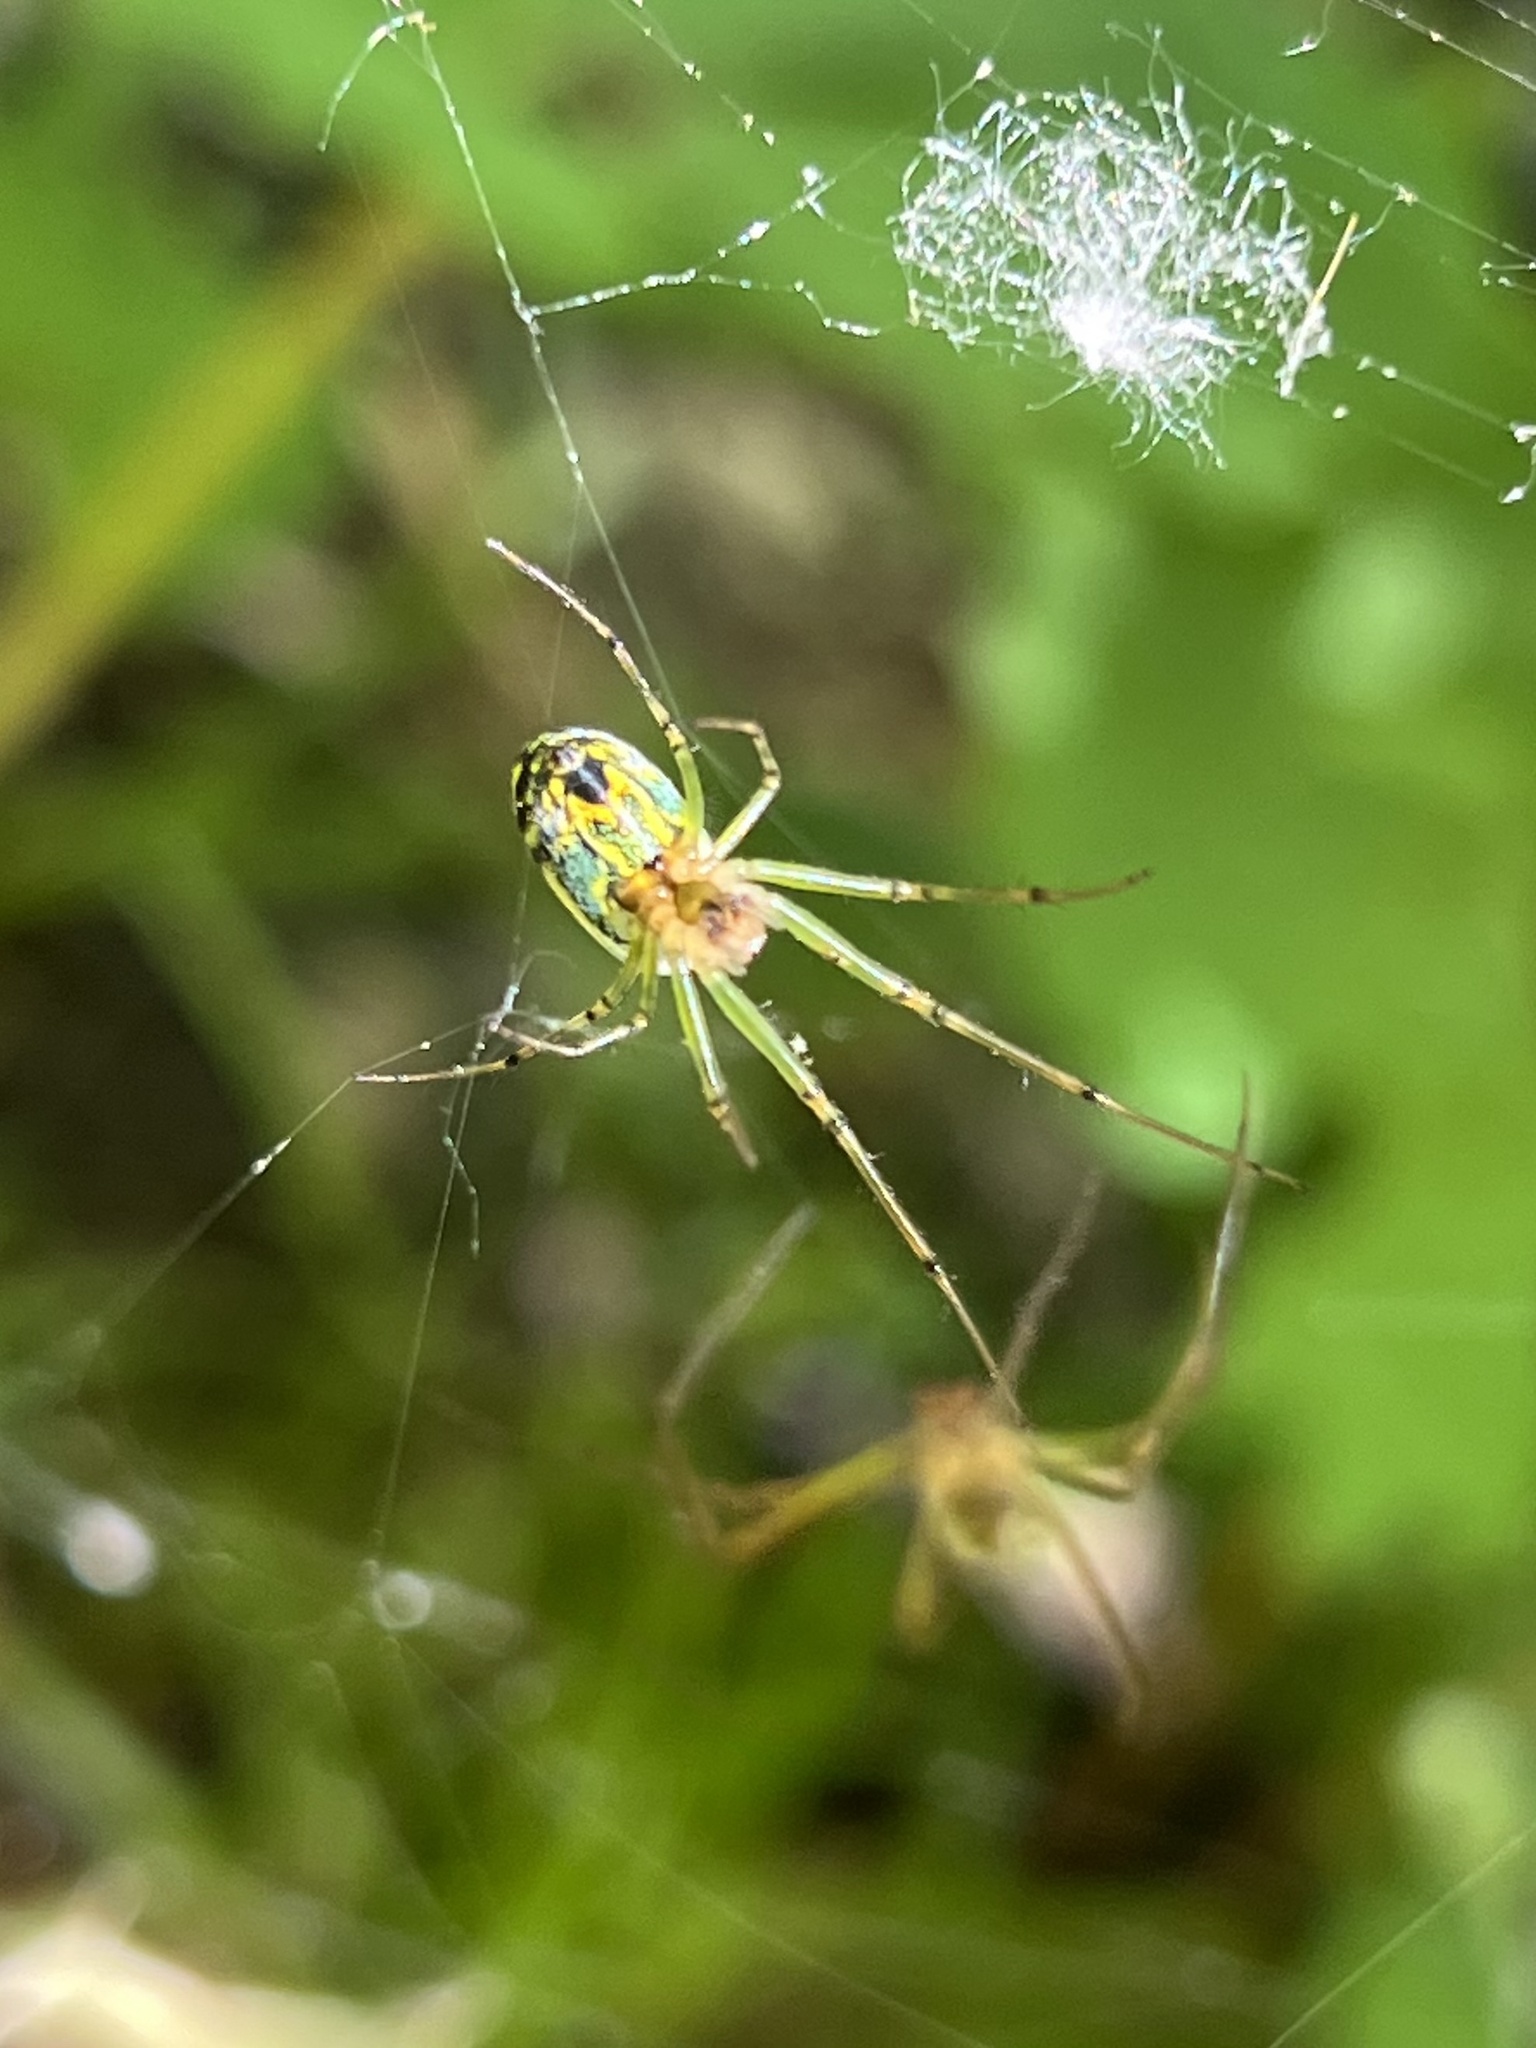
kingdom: Animalia
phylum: Arthropoda
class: Arachnida
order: Araneae
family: Tetragnathidae
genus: Leucauge
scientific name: Leucauge venusta
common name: Longjawed orb weavers
